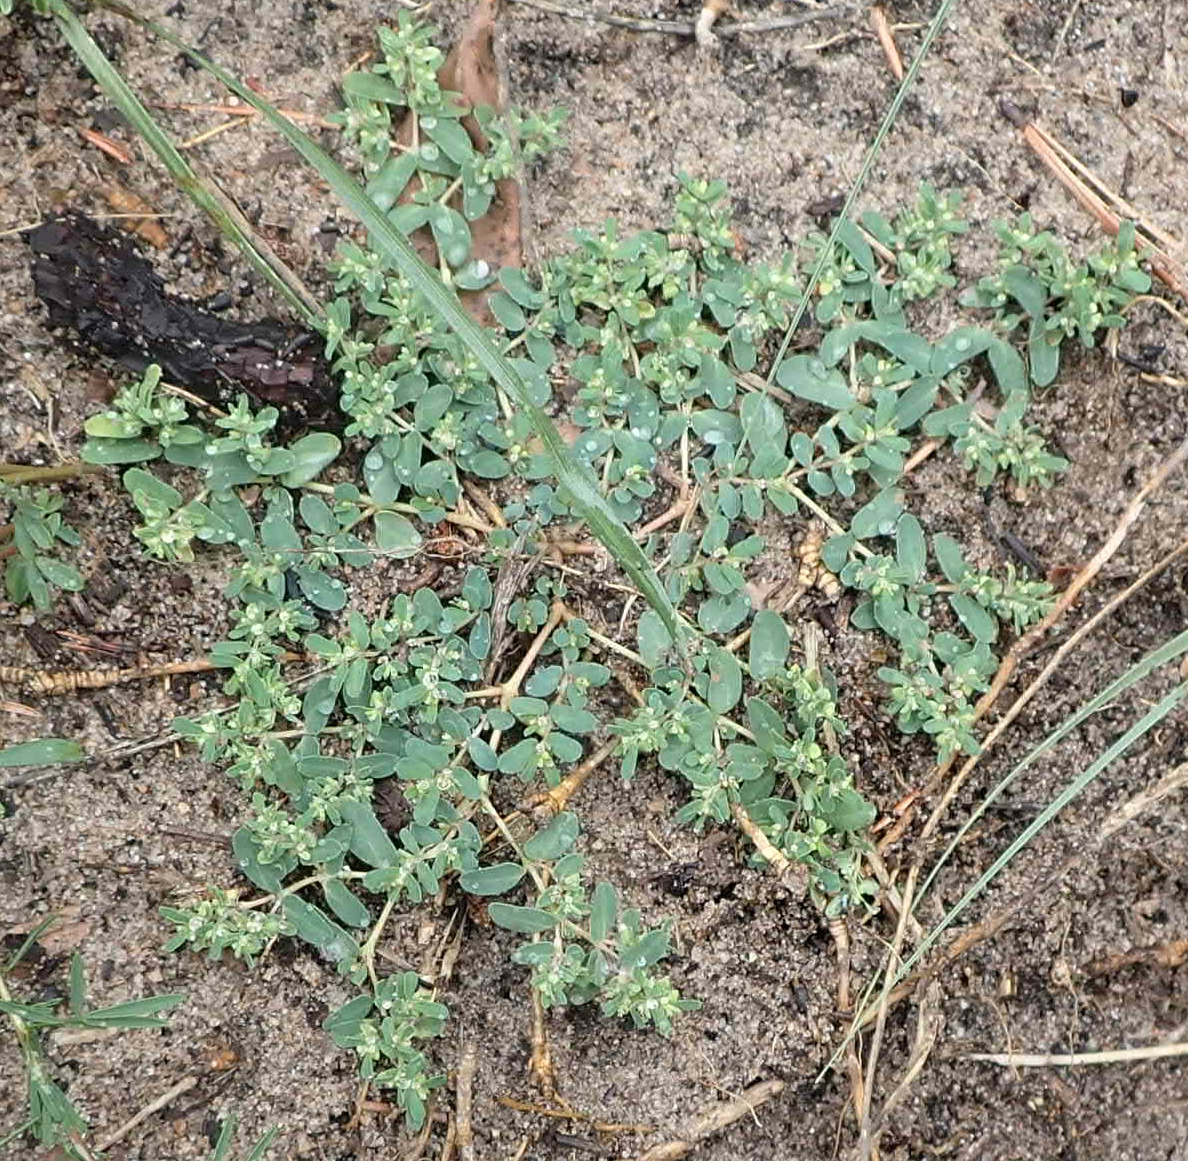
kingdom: Plantae
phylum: Tracheophyta
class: Magnoliopsida
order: Malpighiales
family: Euphorbiaceae
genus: Euphorbia
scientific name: Euphorbia glyptosperma
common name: Corrugate-seeded spurge
